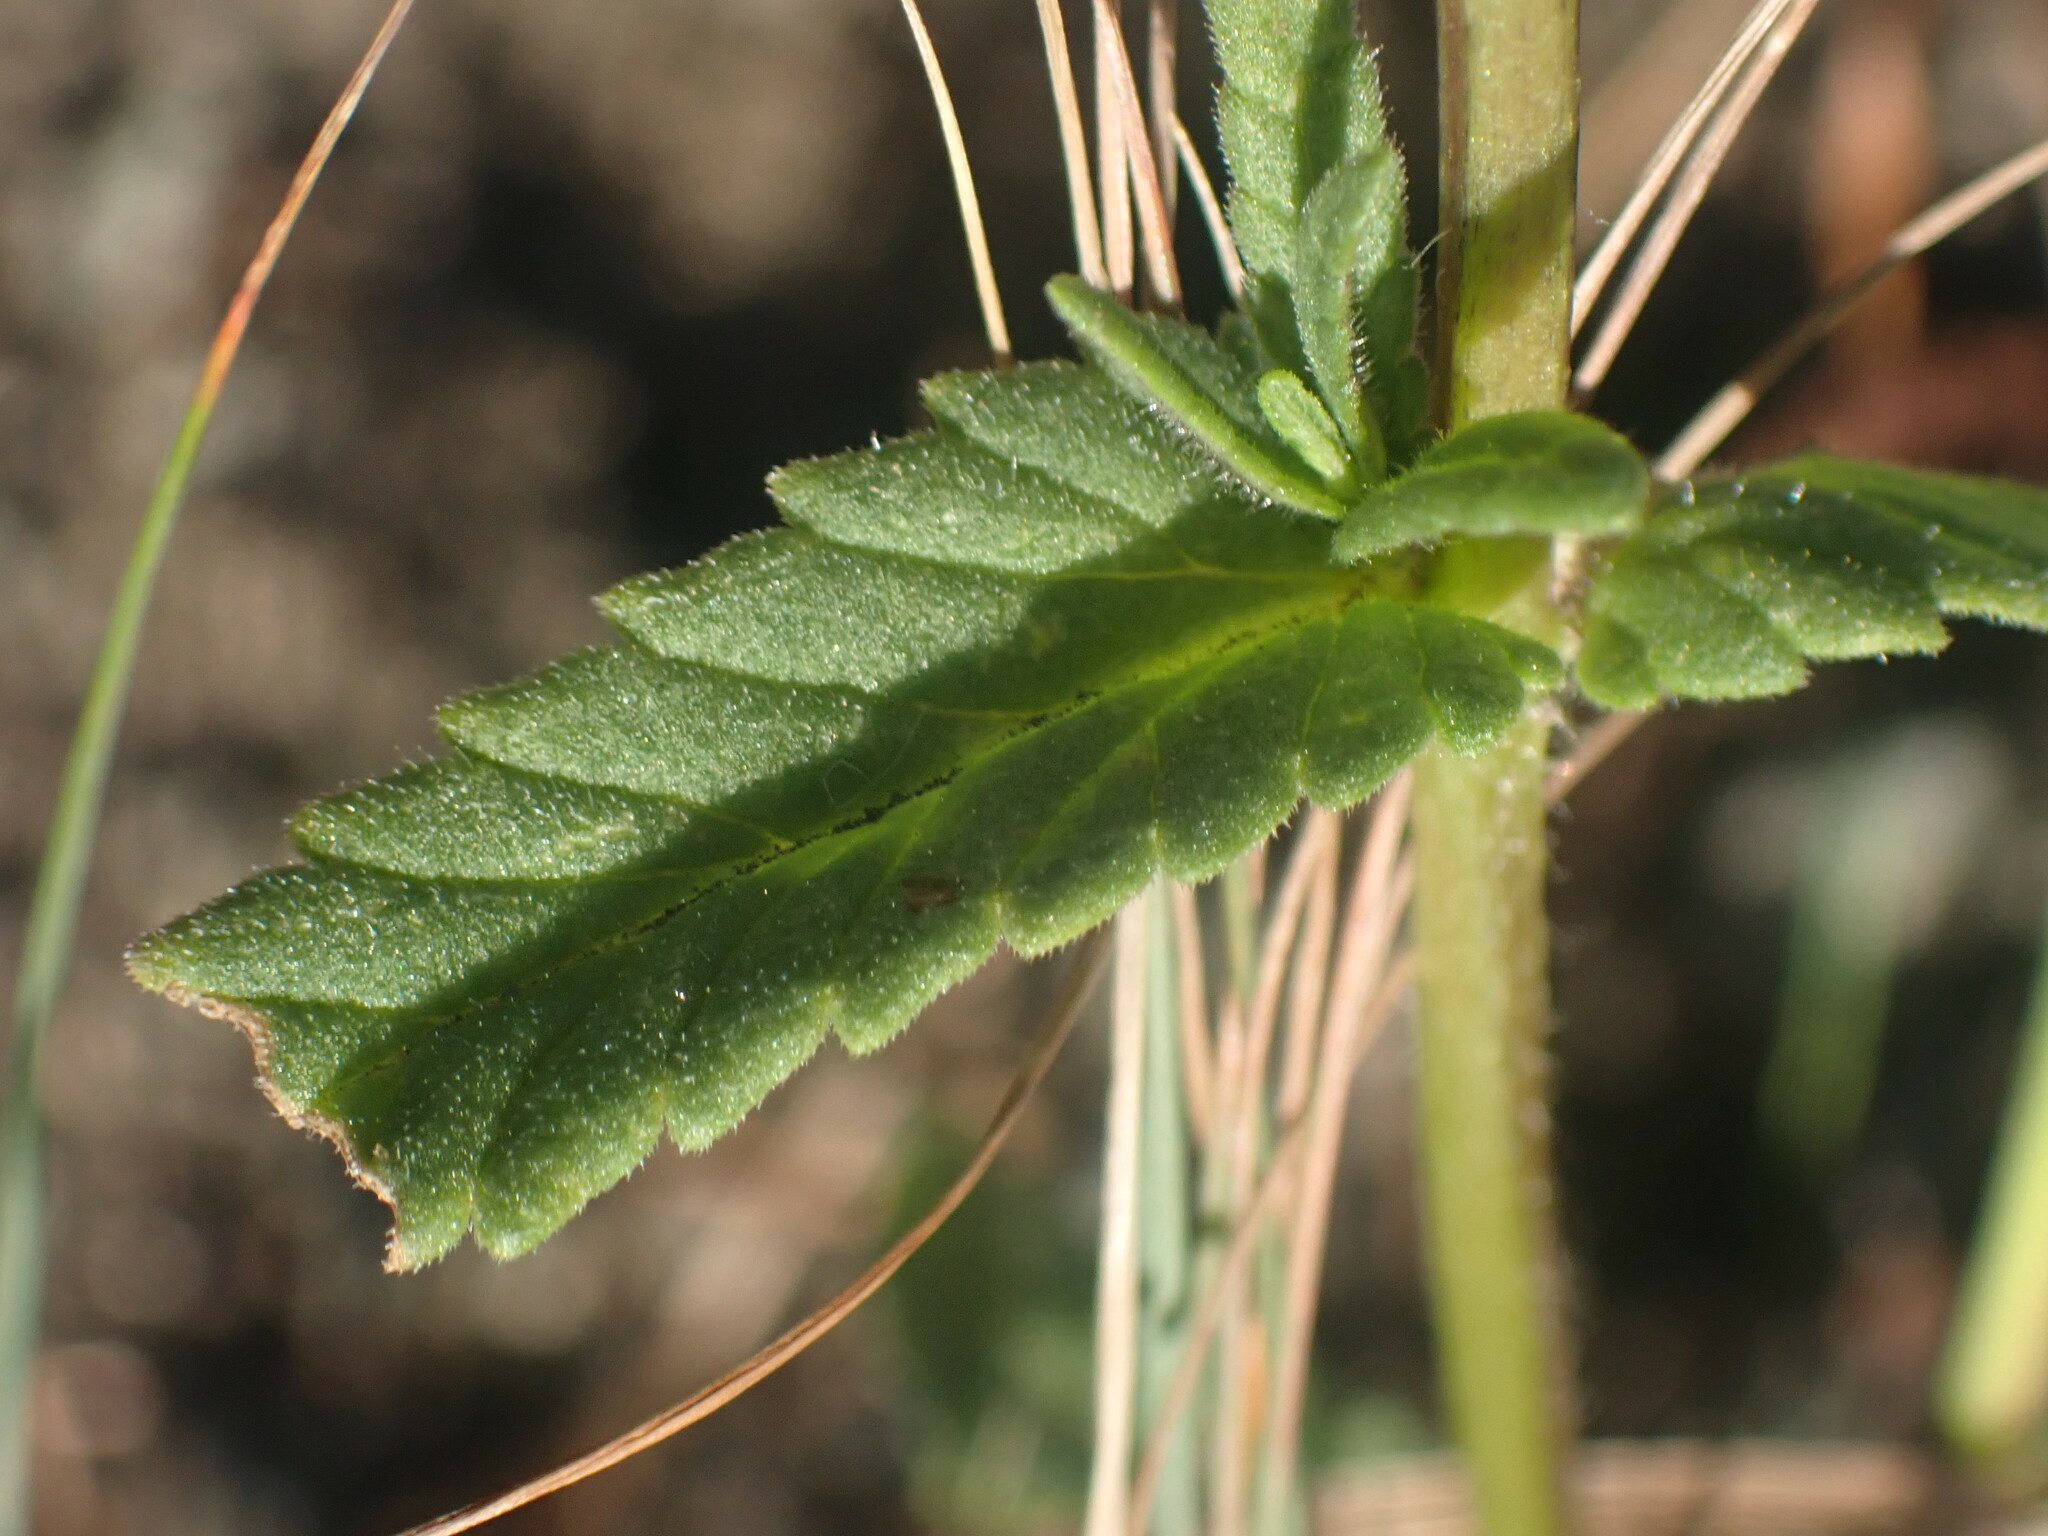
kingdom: Plantae
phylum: Tracheophyta
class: Magnoliopsida
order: Lamiales
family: Orobanchaceae
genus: Rhinanthus
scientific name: Rhinanthus groenlandicus
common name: Little yellow rattle
